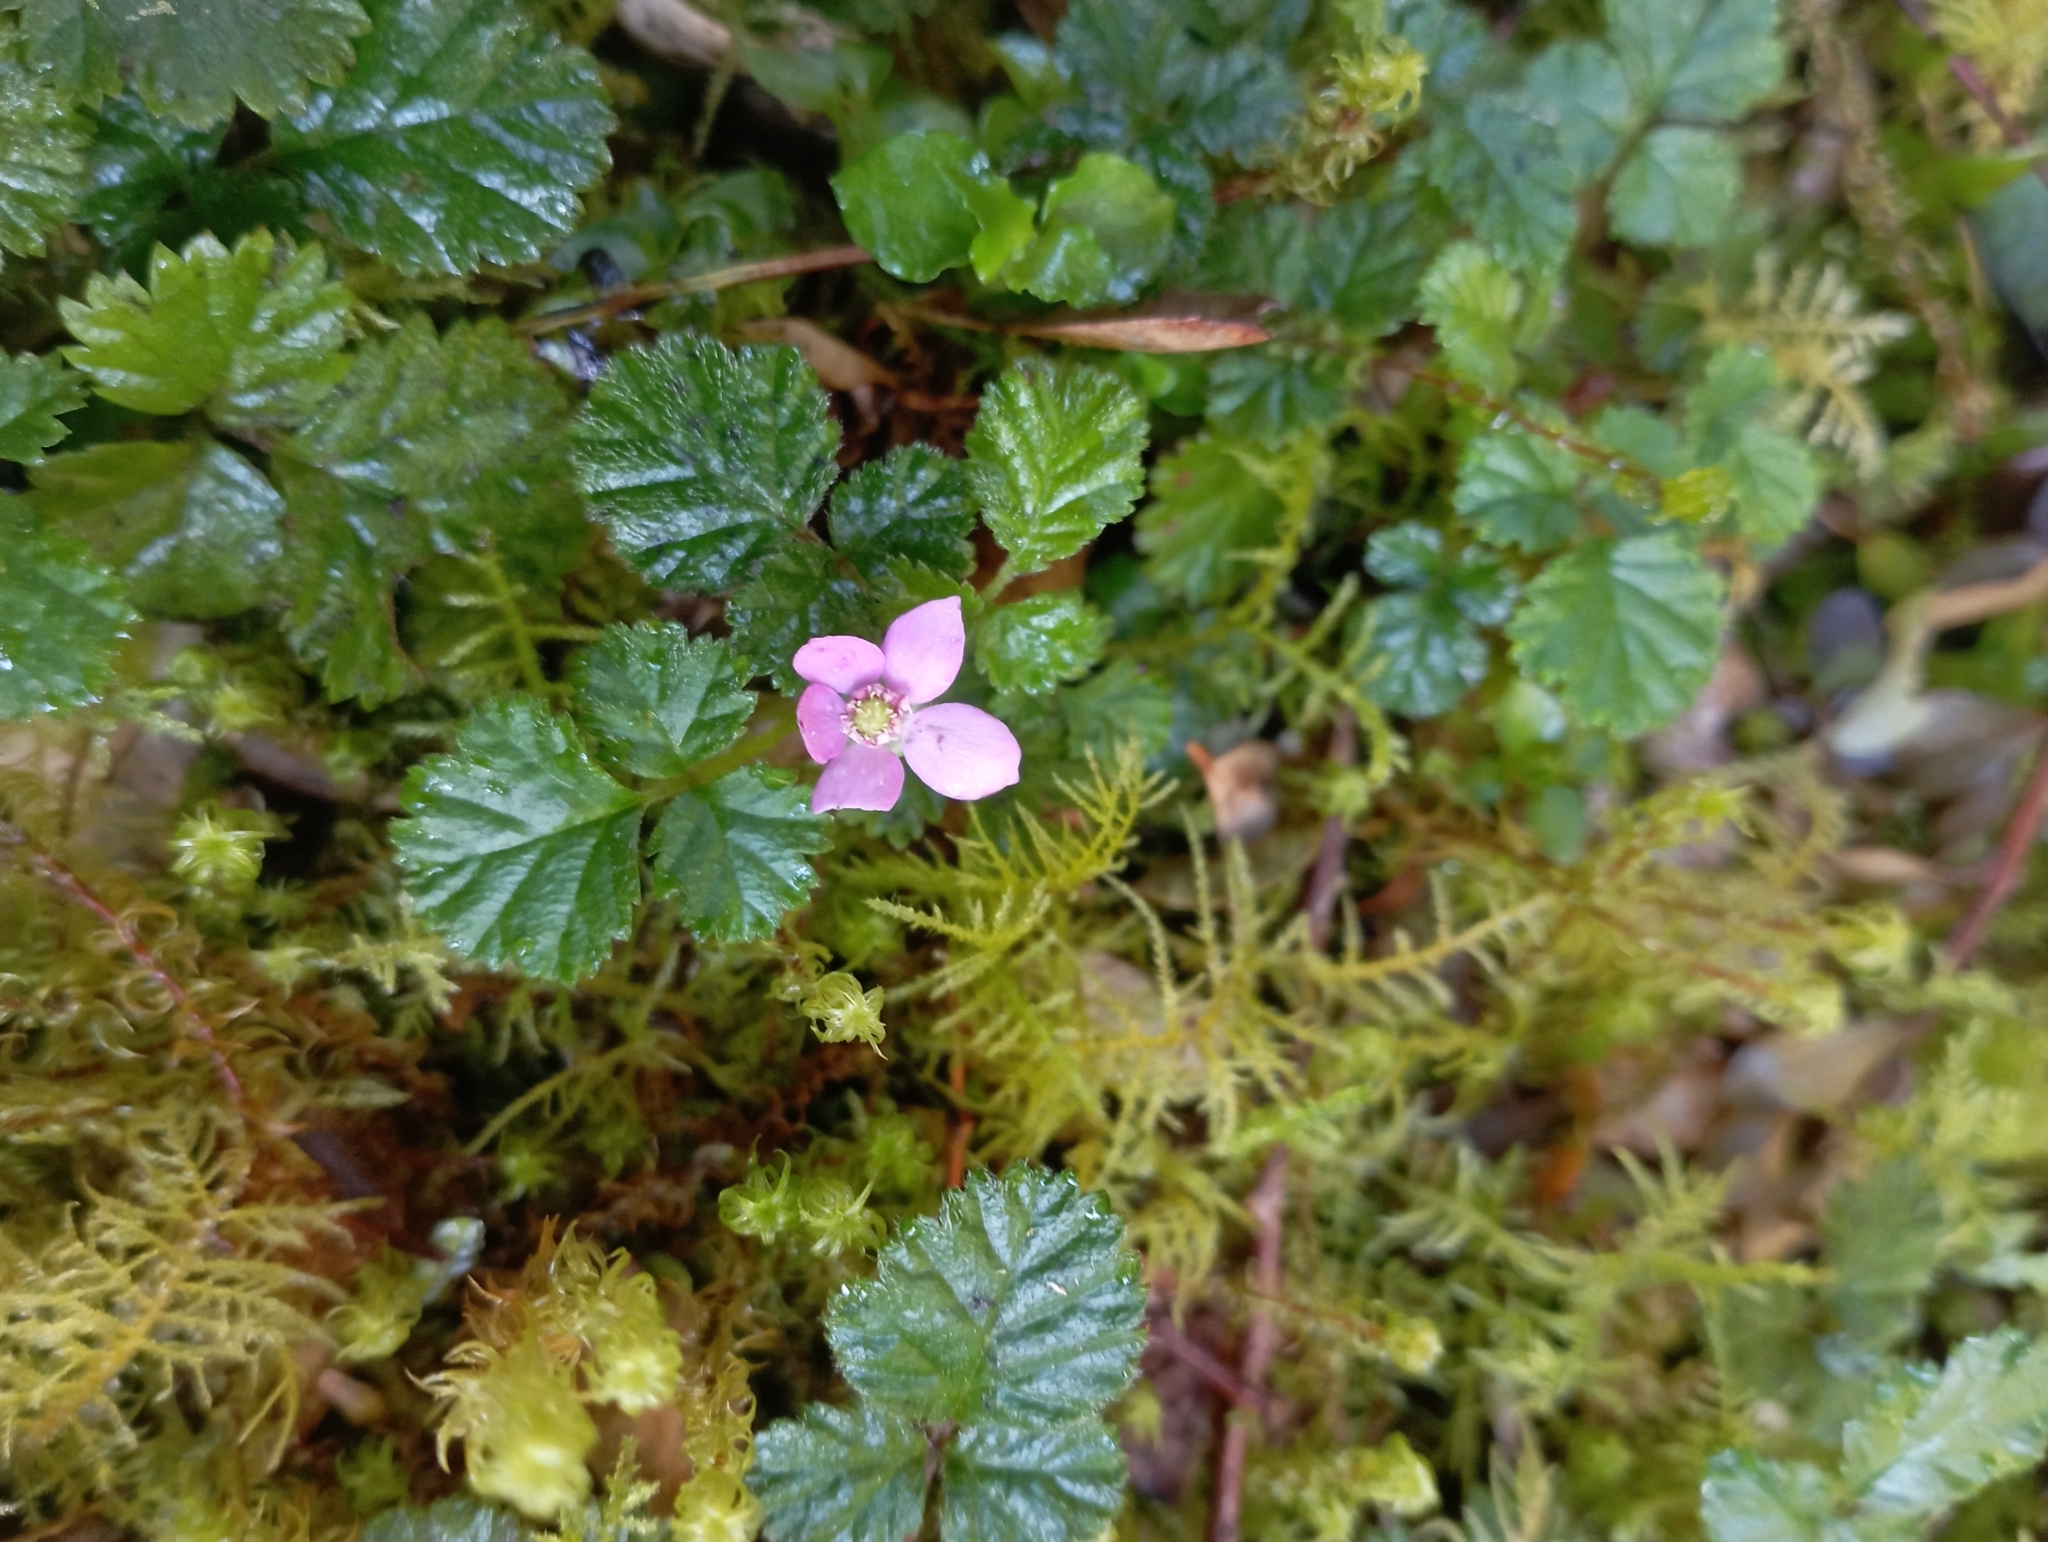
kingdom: Plantae
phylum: Tracheophyta
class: Magnoliopsida
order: Rosales
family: Rosaceae
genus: Rubus
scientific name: Rubus radicans
